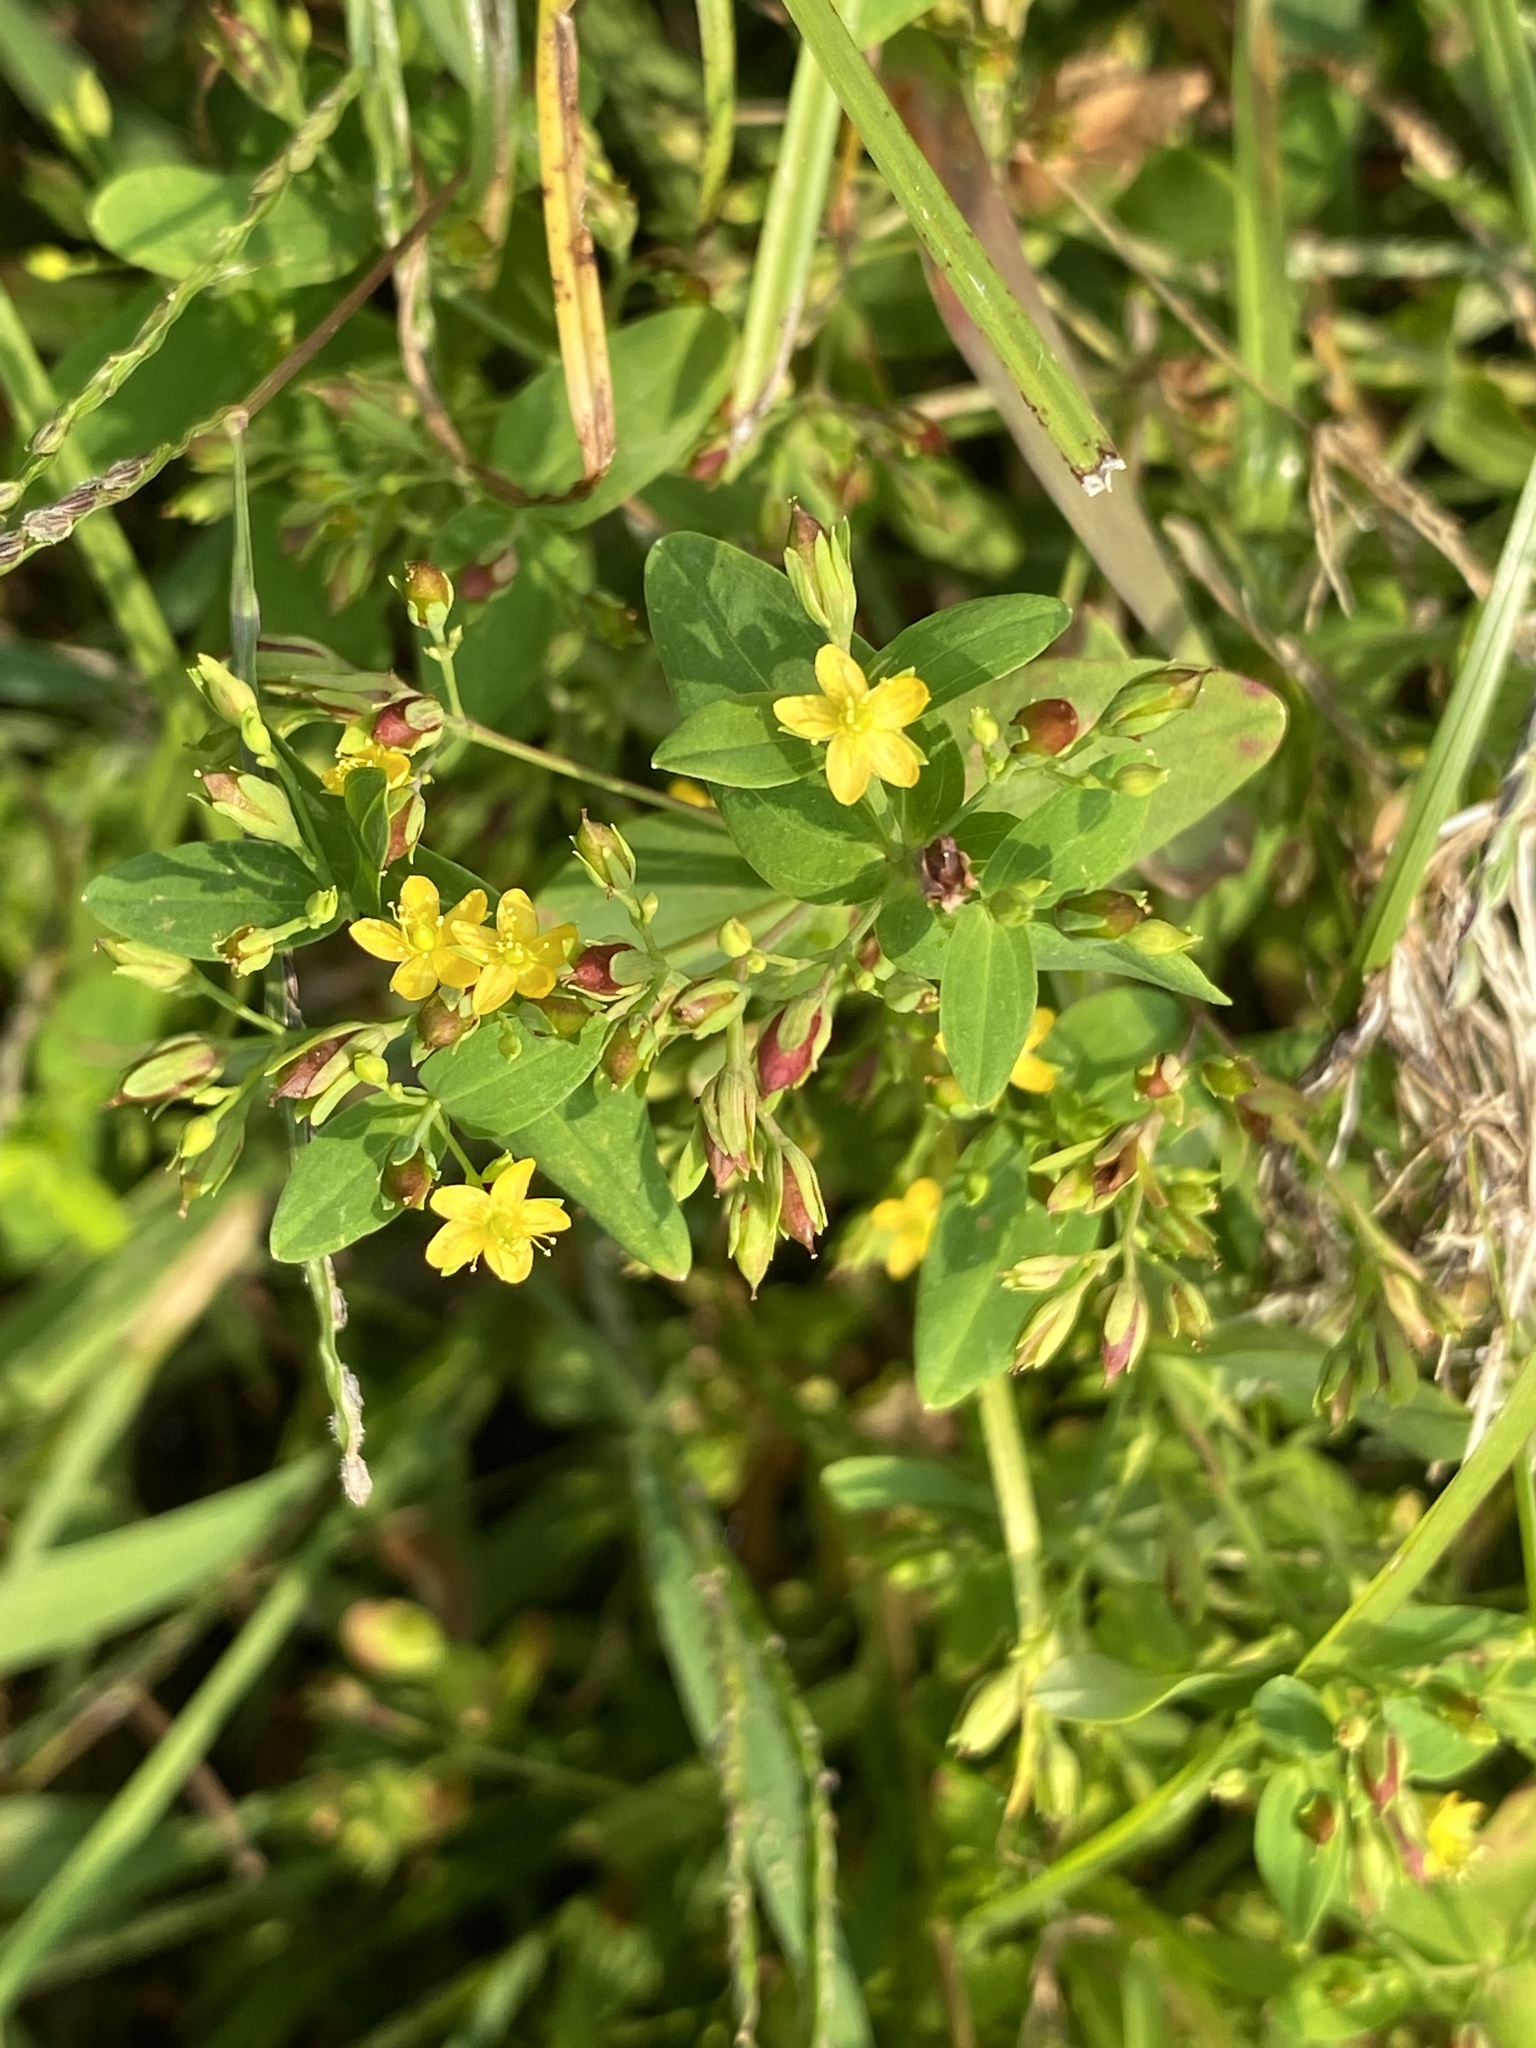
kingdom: Plantae
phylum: Tracheophyta
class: Magnoliopsida
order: Malpighiales
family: Hypericaceae
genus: Hypericum
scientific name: Hypericum mutilum
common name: Dwarf st. john's-wort
